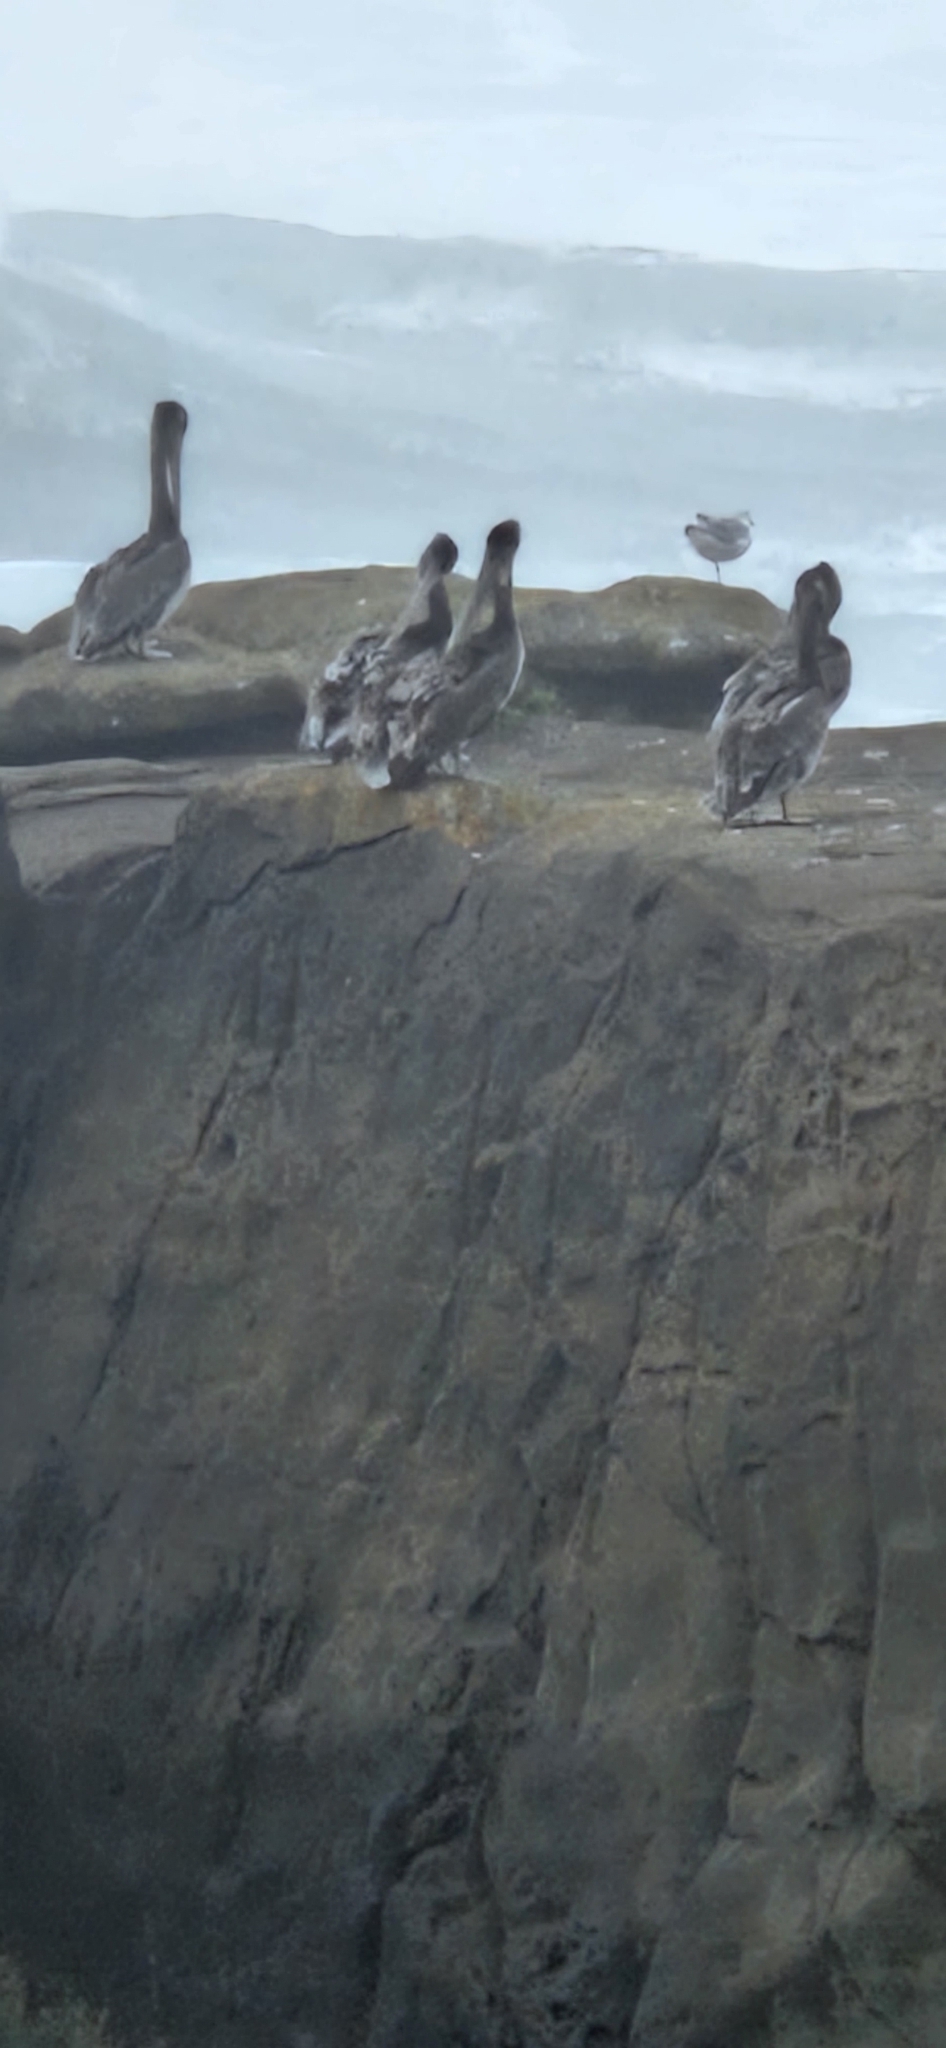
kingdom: Animalia
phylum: Chordata
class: Aves
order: Pelecaniformes
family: Pelecanidae
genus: Pelecanus
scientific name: Pelecanus occidentalis
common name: Brown pelican
